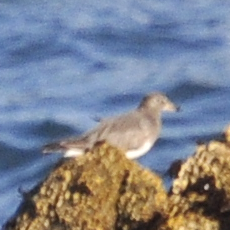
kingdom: Animalia
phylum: Chordata
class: Aves
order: Charadriiformes
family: Scolopacidae
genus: Calidris
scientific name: Calidris virgata
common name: Surfbird
